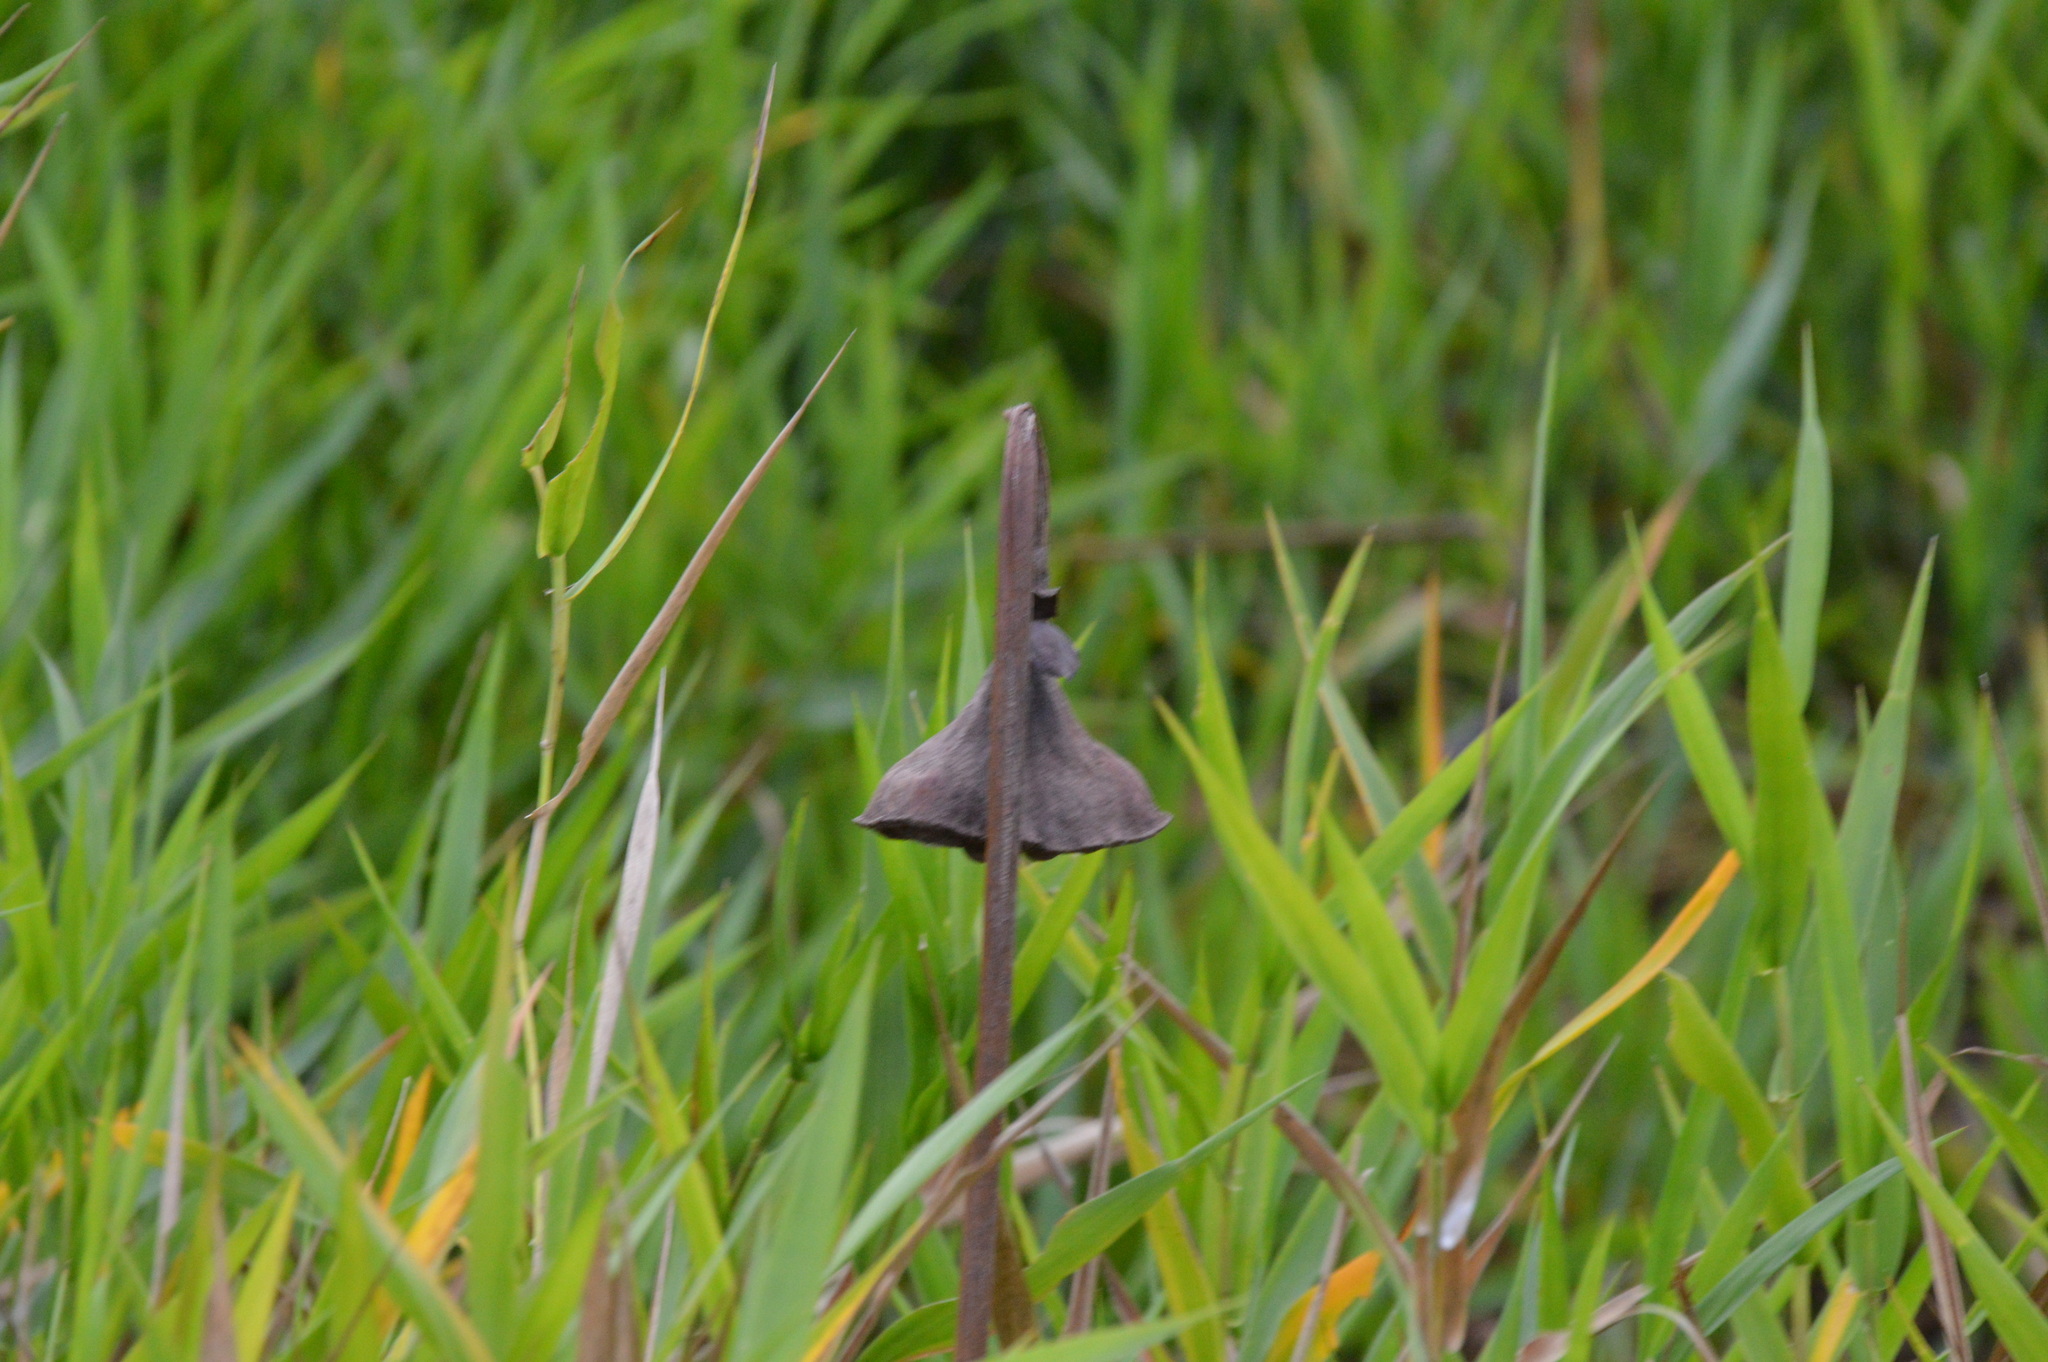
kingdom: Plantae
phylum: Tracheophyta
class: Magnoliopsida
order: Proteales
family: Nelumbonaceae
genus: Nelumbo
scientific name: Nelumbo lutea
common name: American lotus
